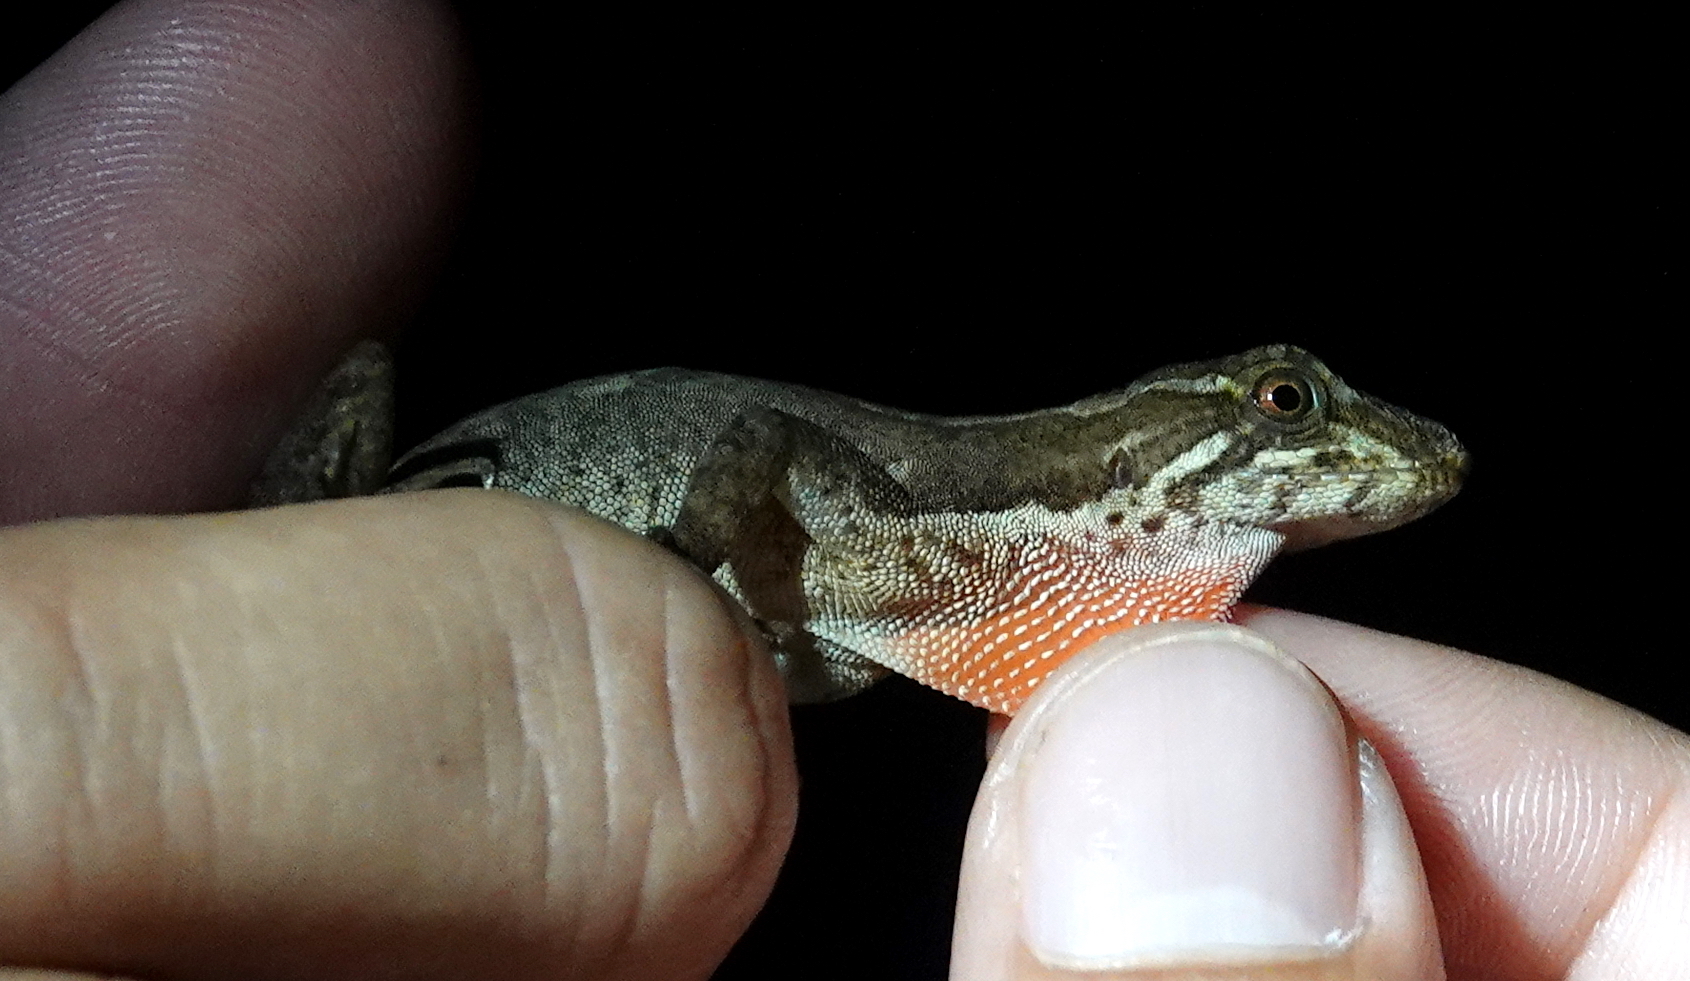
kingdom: Animalia
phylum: Chordata
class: Squamata
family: Dactyloidae
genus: Anolis
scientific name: Anolis tropidolepis
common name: Swift anole
